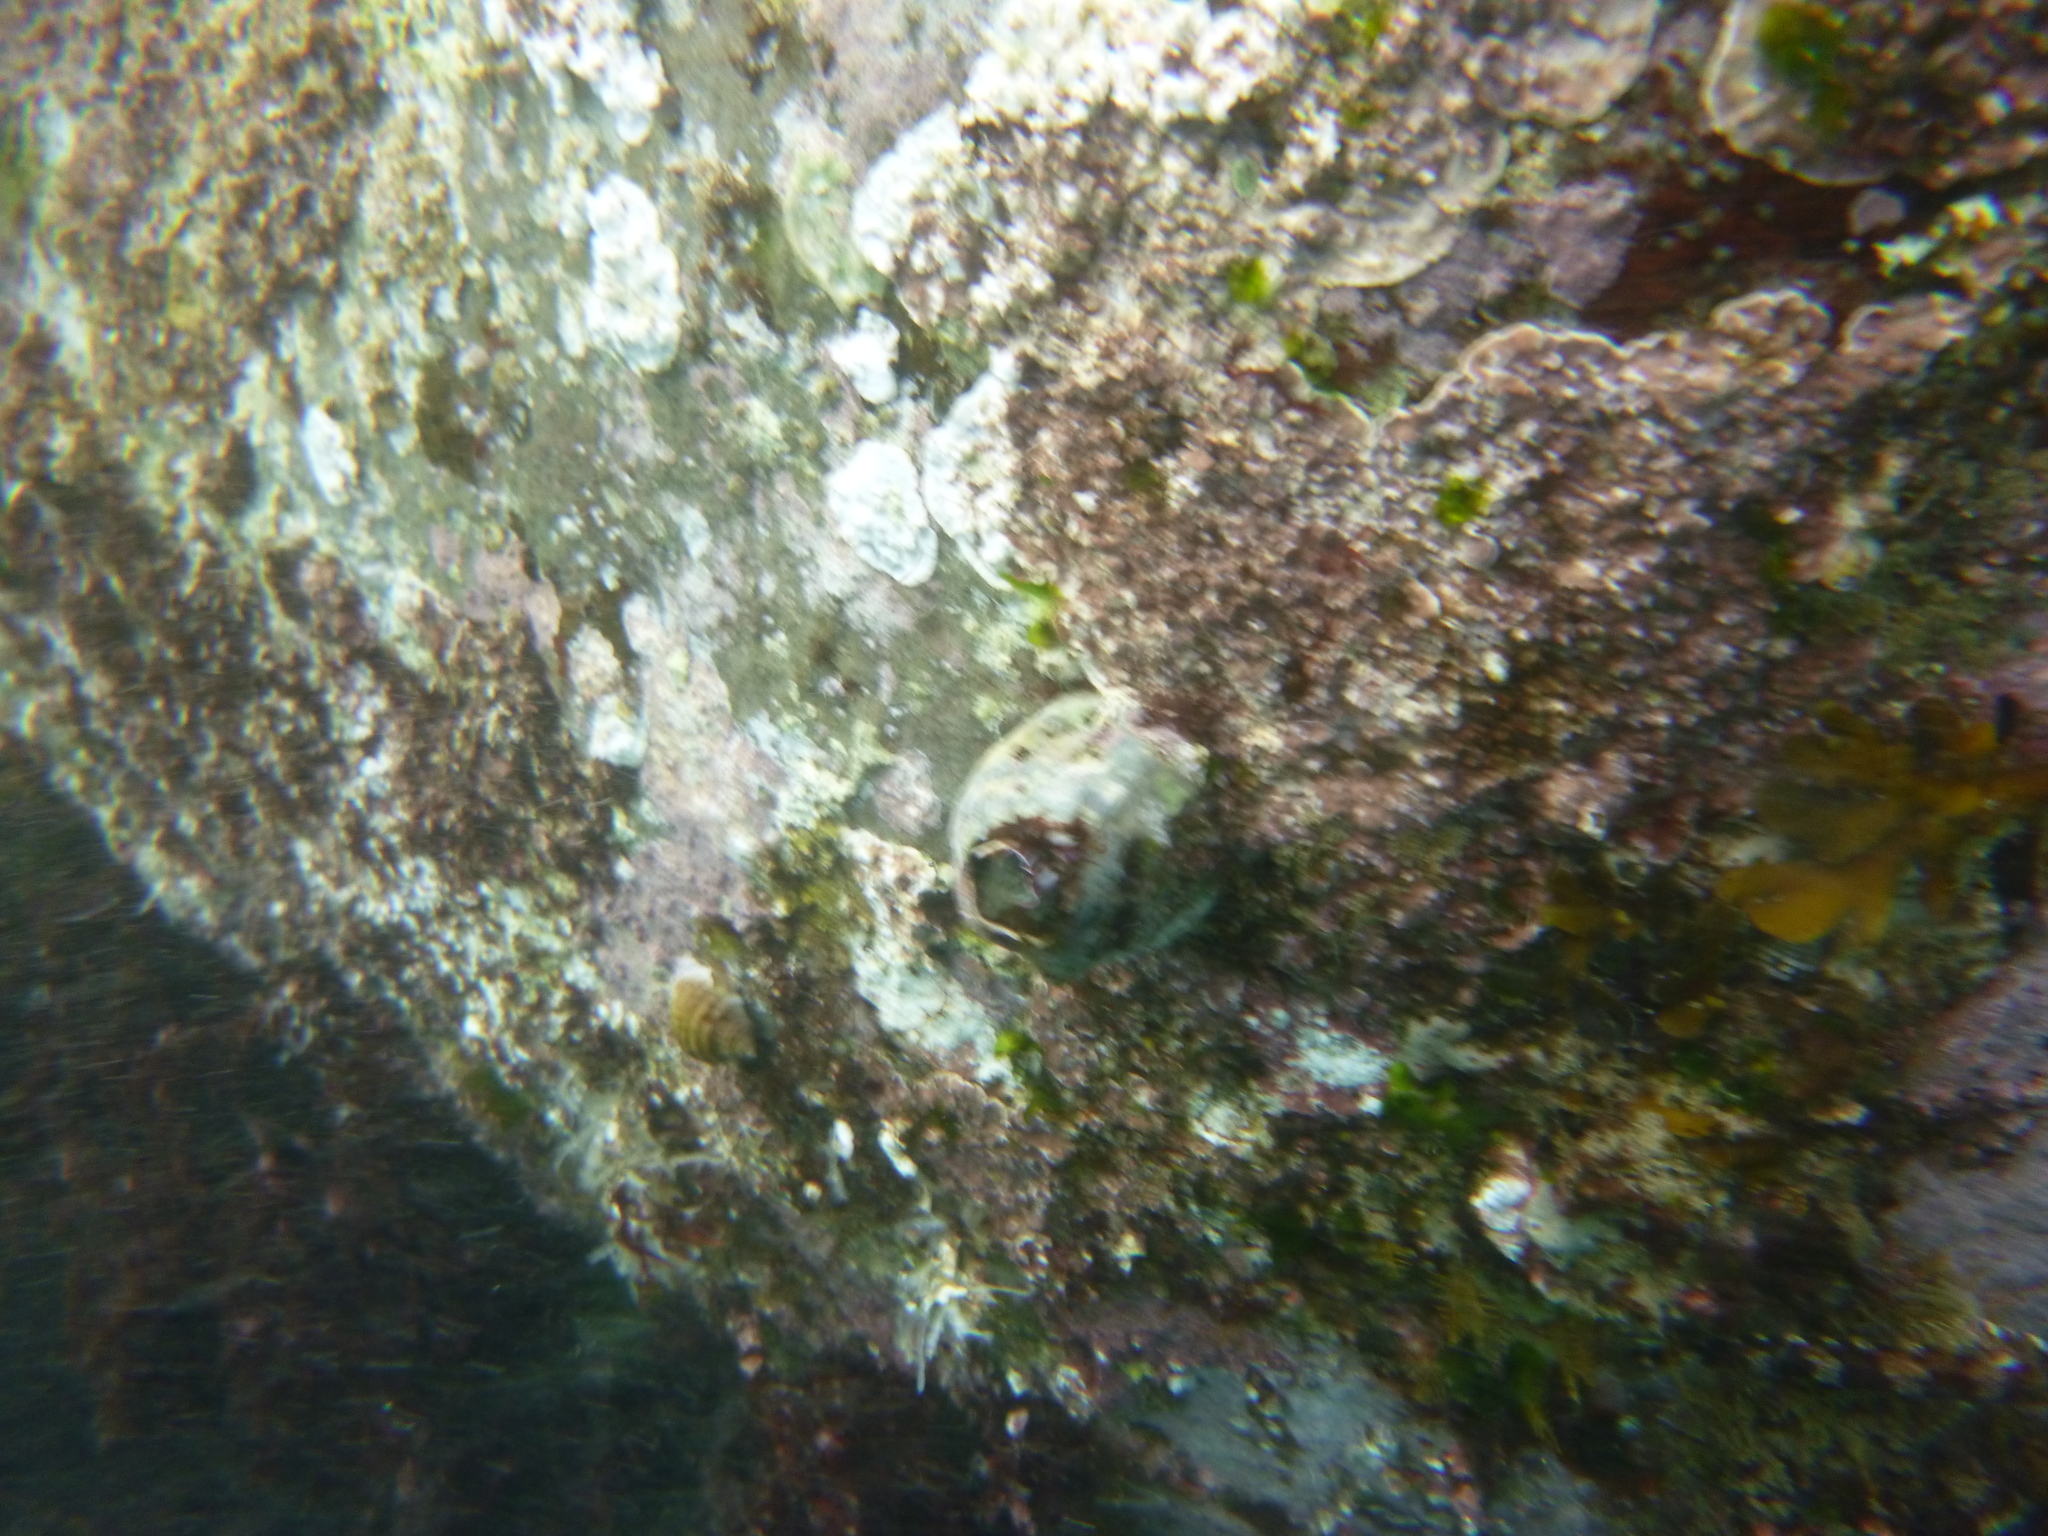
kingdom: Animalia
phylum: Arthropoda
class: Maxillopoda
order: Sessilia
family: Balanidae
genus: Austromegabalanus
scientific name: Austromegabalanus nigrescens
